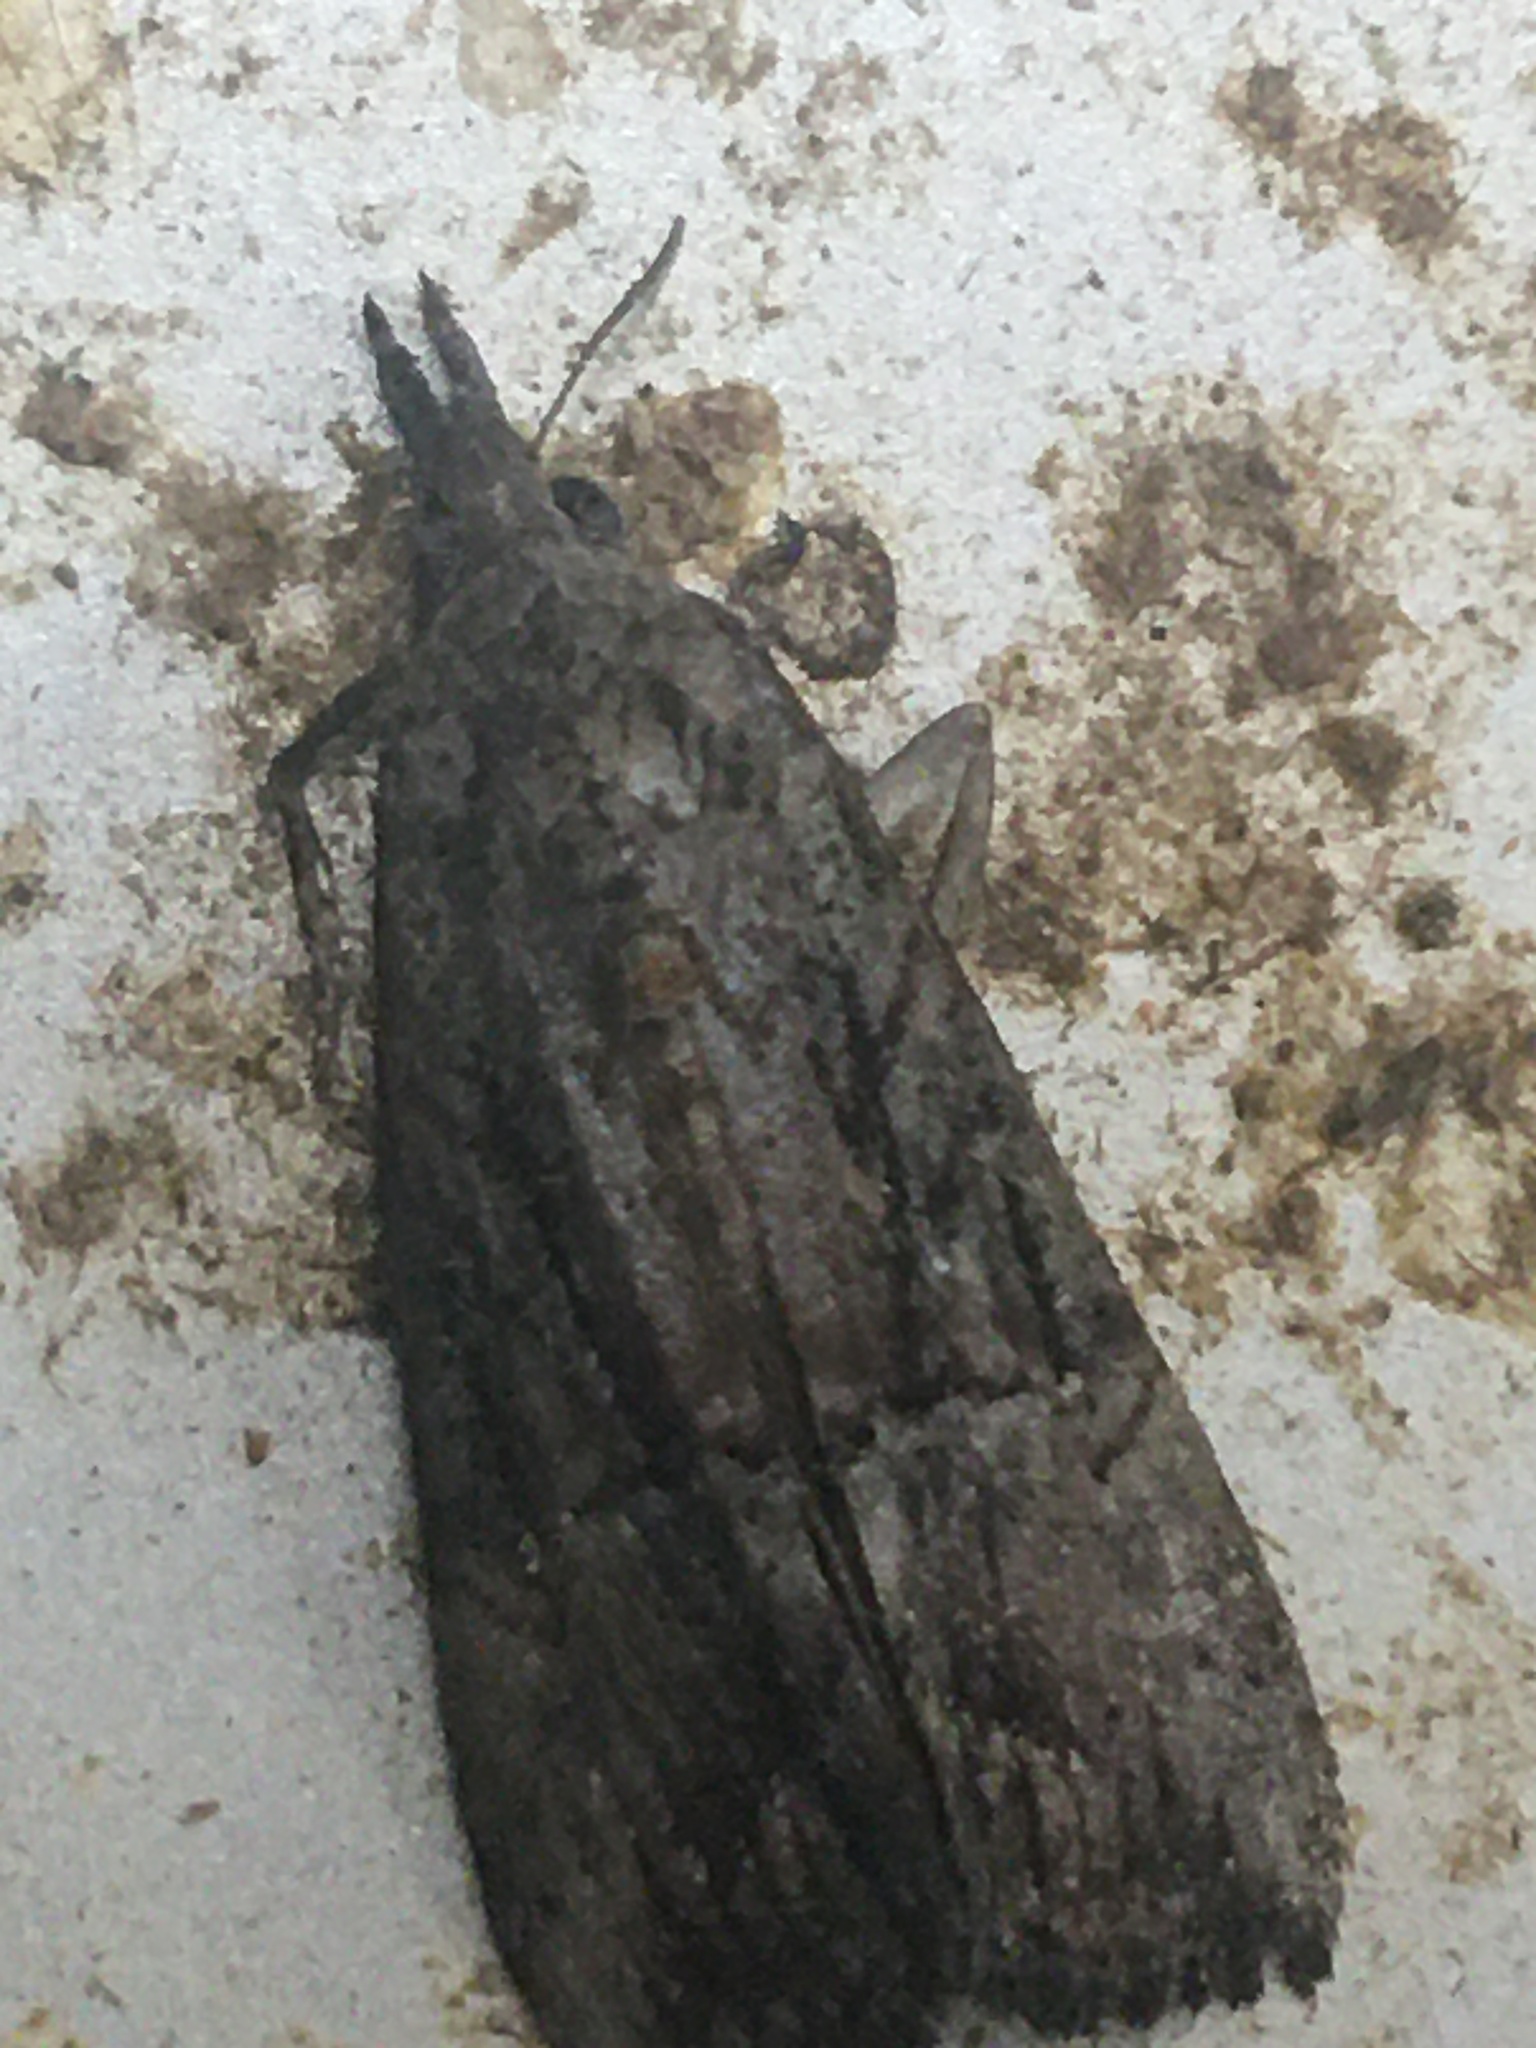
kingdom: Animalia
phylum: Arthropoda
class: Insecta
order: Lepidoptera
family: Erebidae
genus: Hypena
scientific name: Hypena scabra
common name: Green cloverworm
